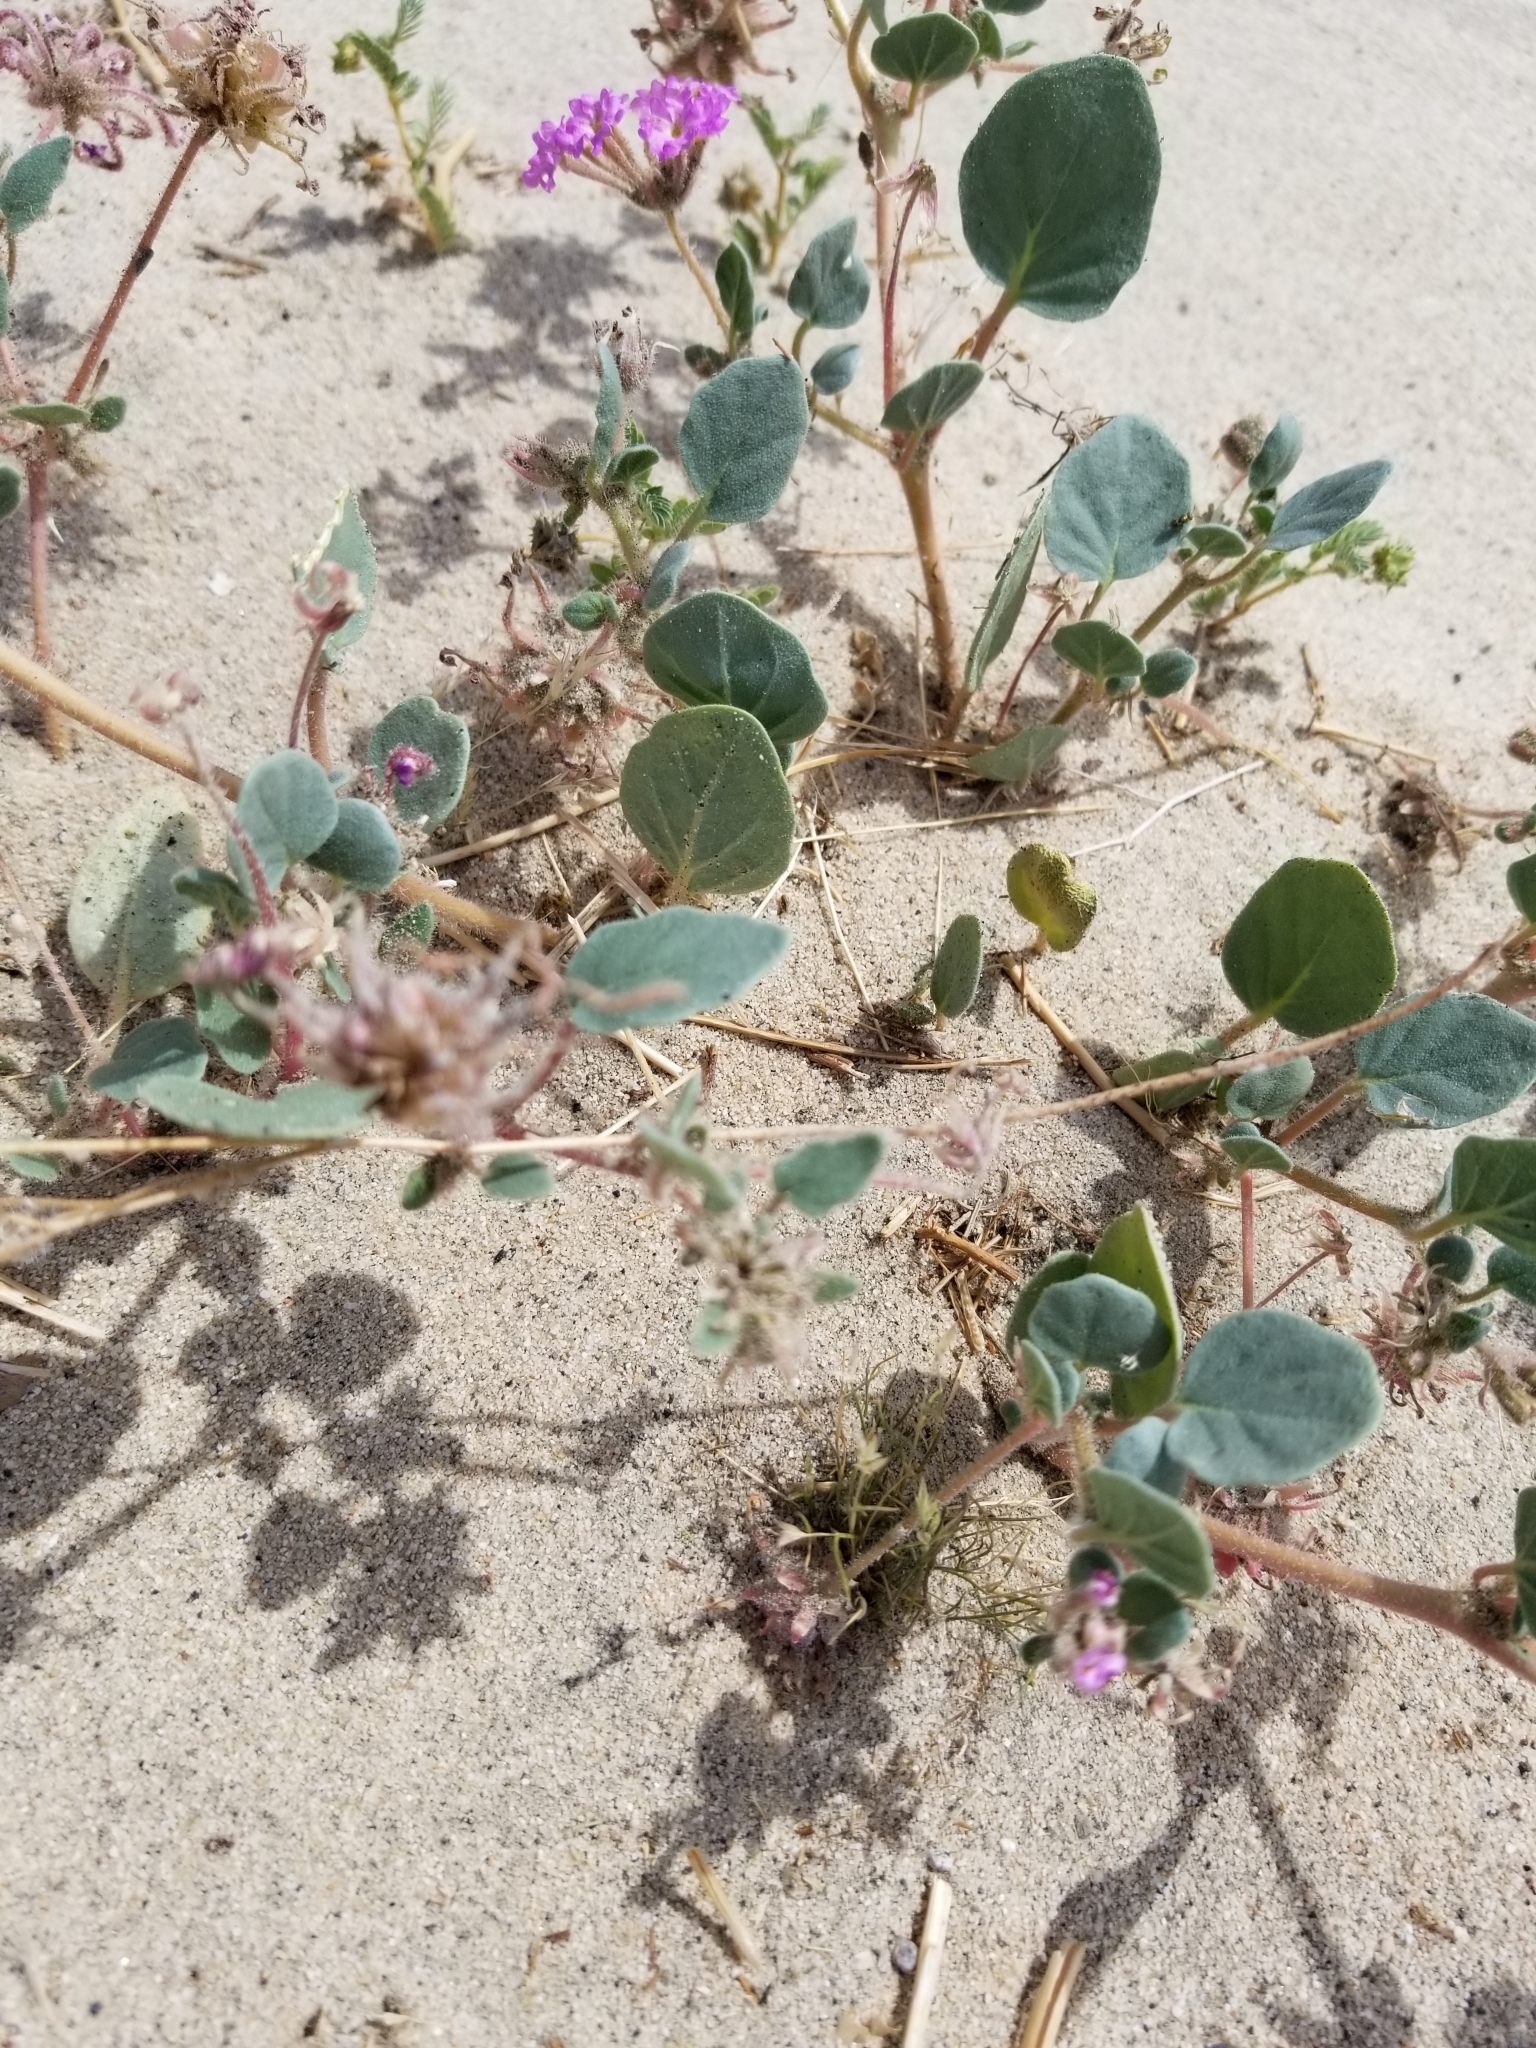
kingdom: Plantae
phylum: Tracheophyta
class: Magnoliopsida
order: Caryophyllales
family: Nyctaginaceae
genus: Abronia
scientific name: Abronia villosa
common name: Desert sand-verbena
